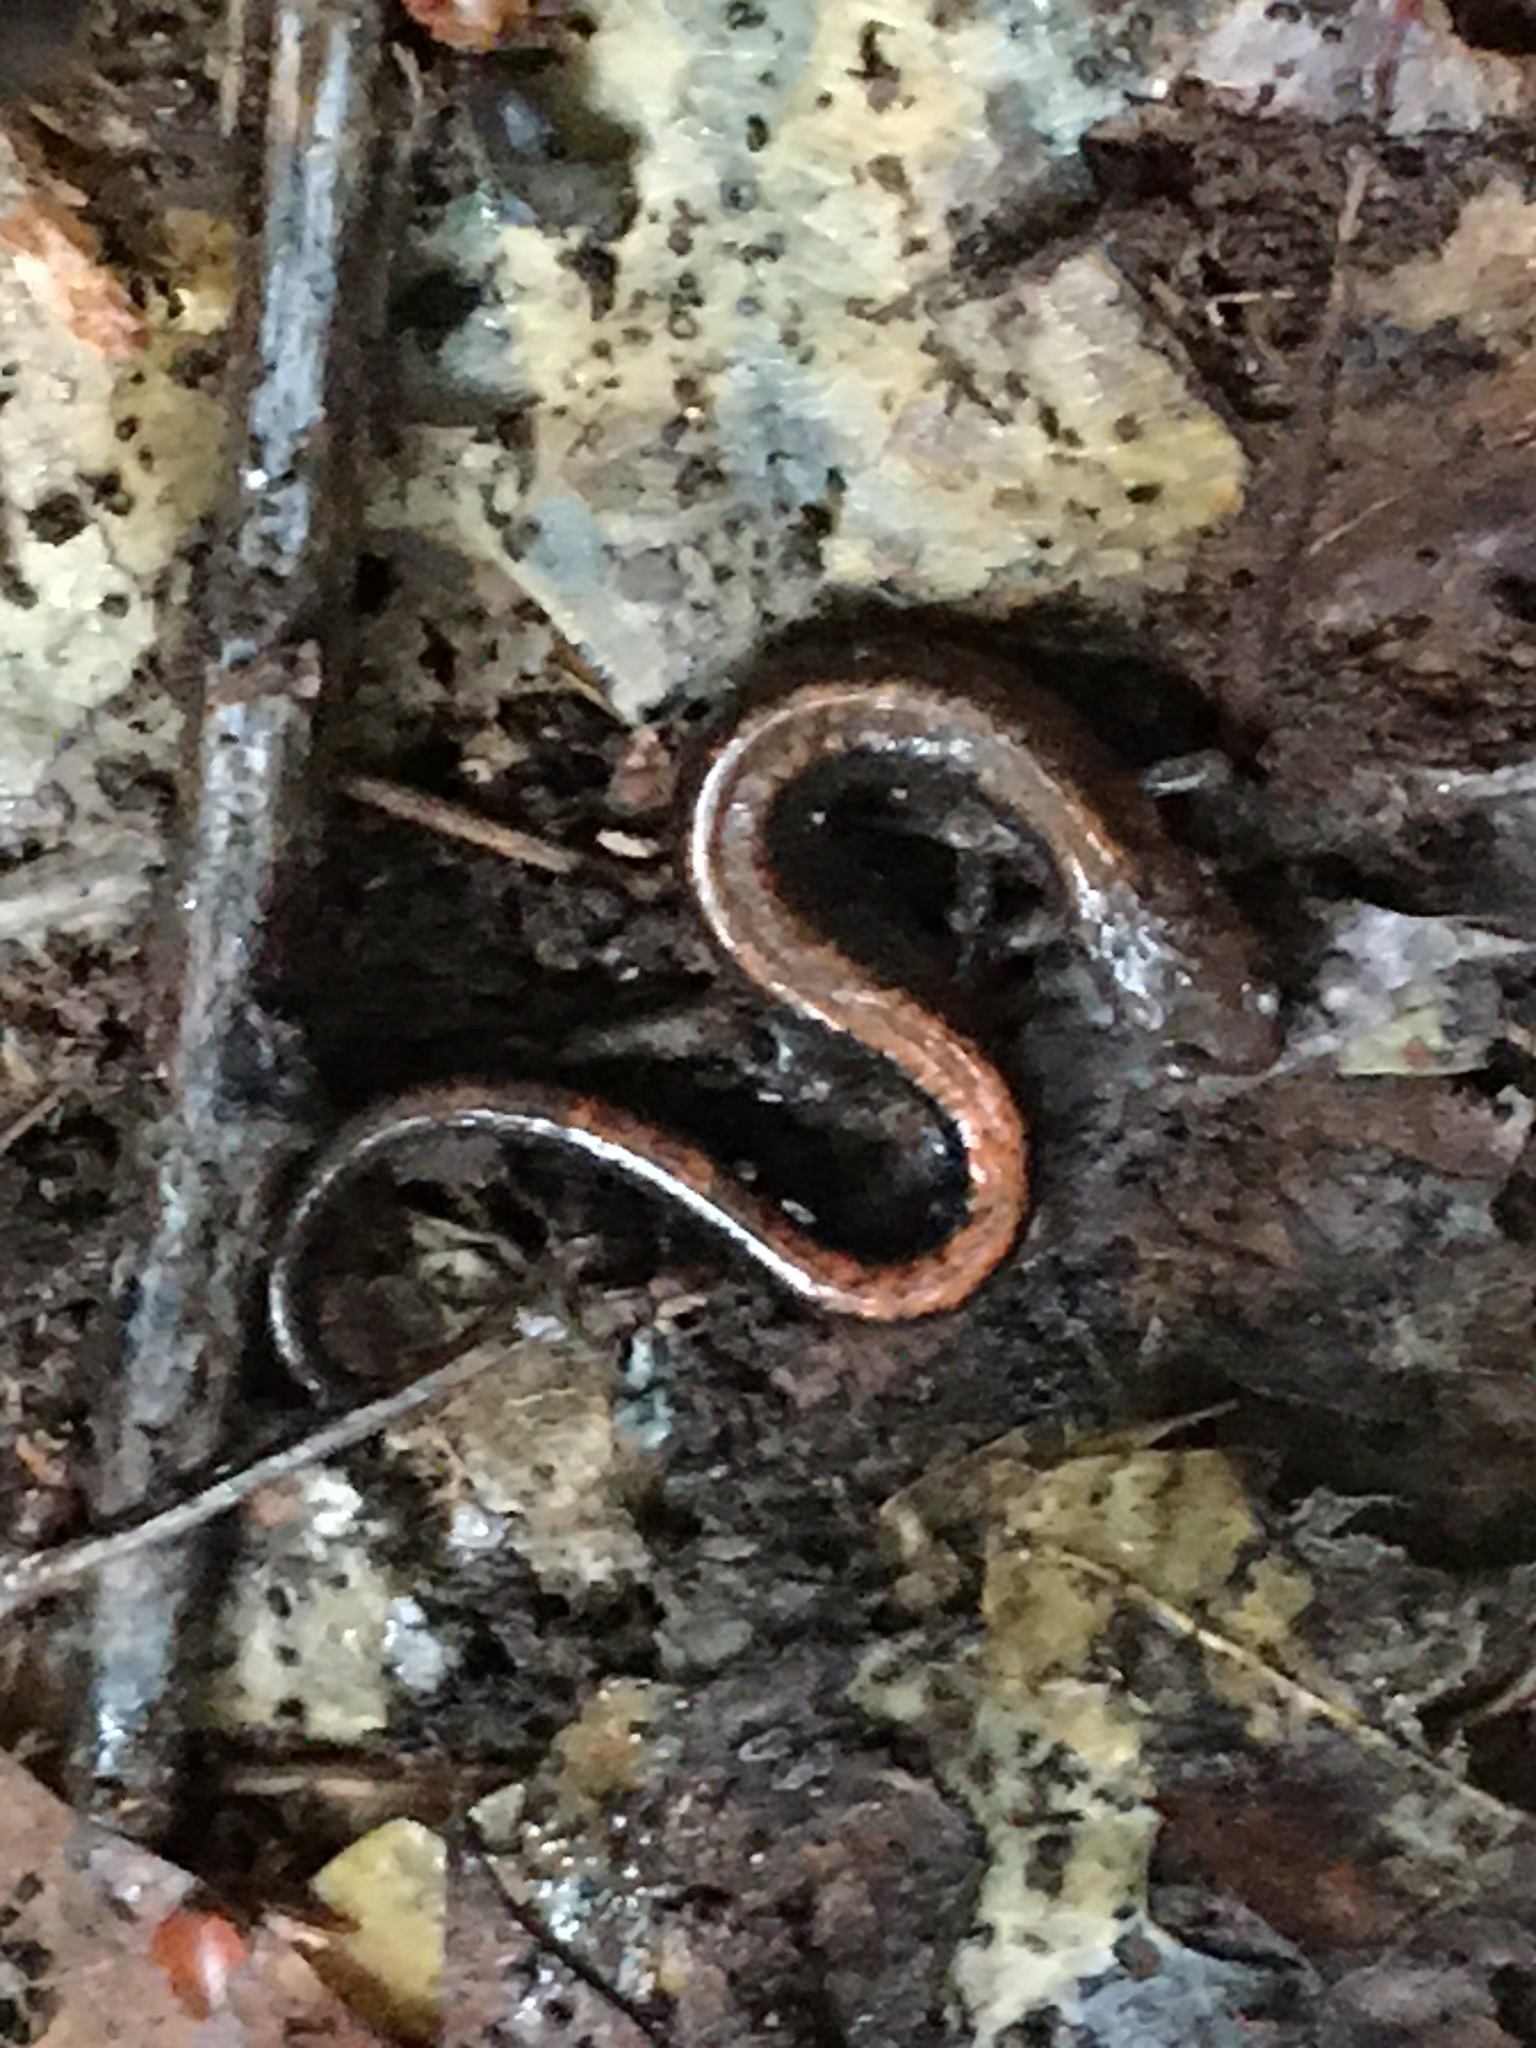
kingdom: Animalia
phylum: Chordata
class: Amphibia
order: Caudata
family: Plethodontidae
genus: Plethodon
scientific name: Plethodon cinereus
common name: Redback salamander
